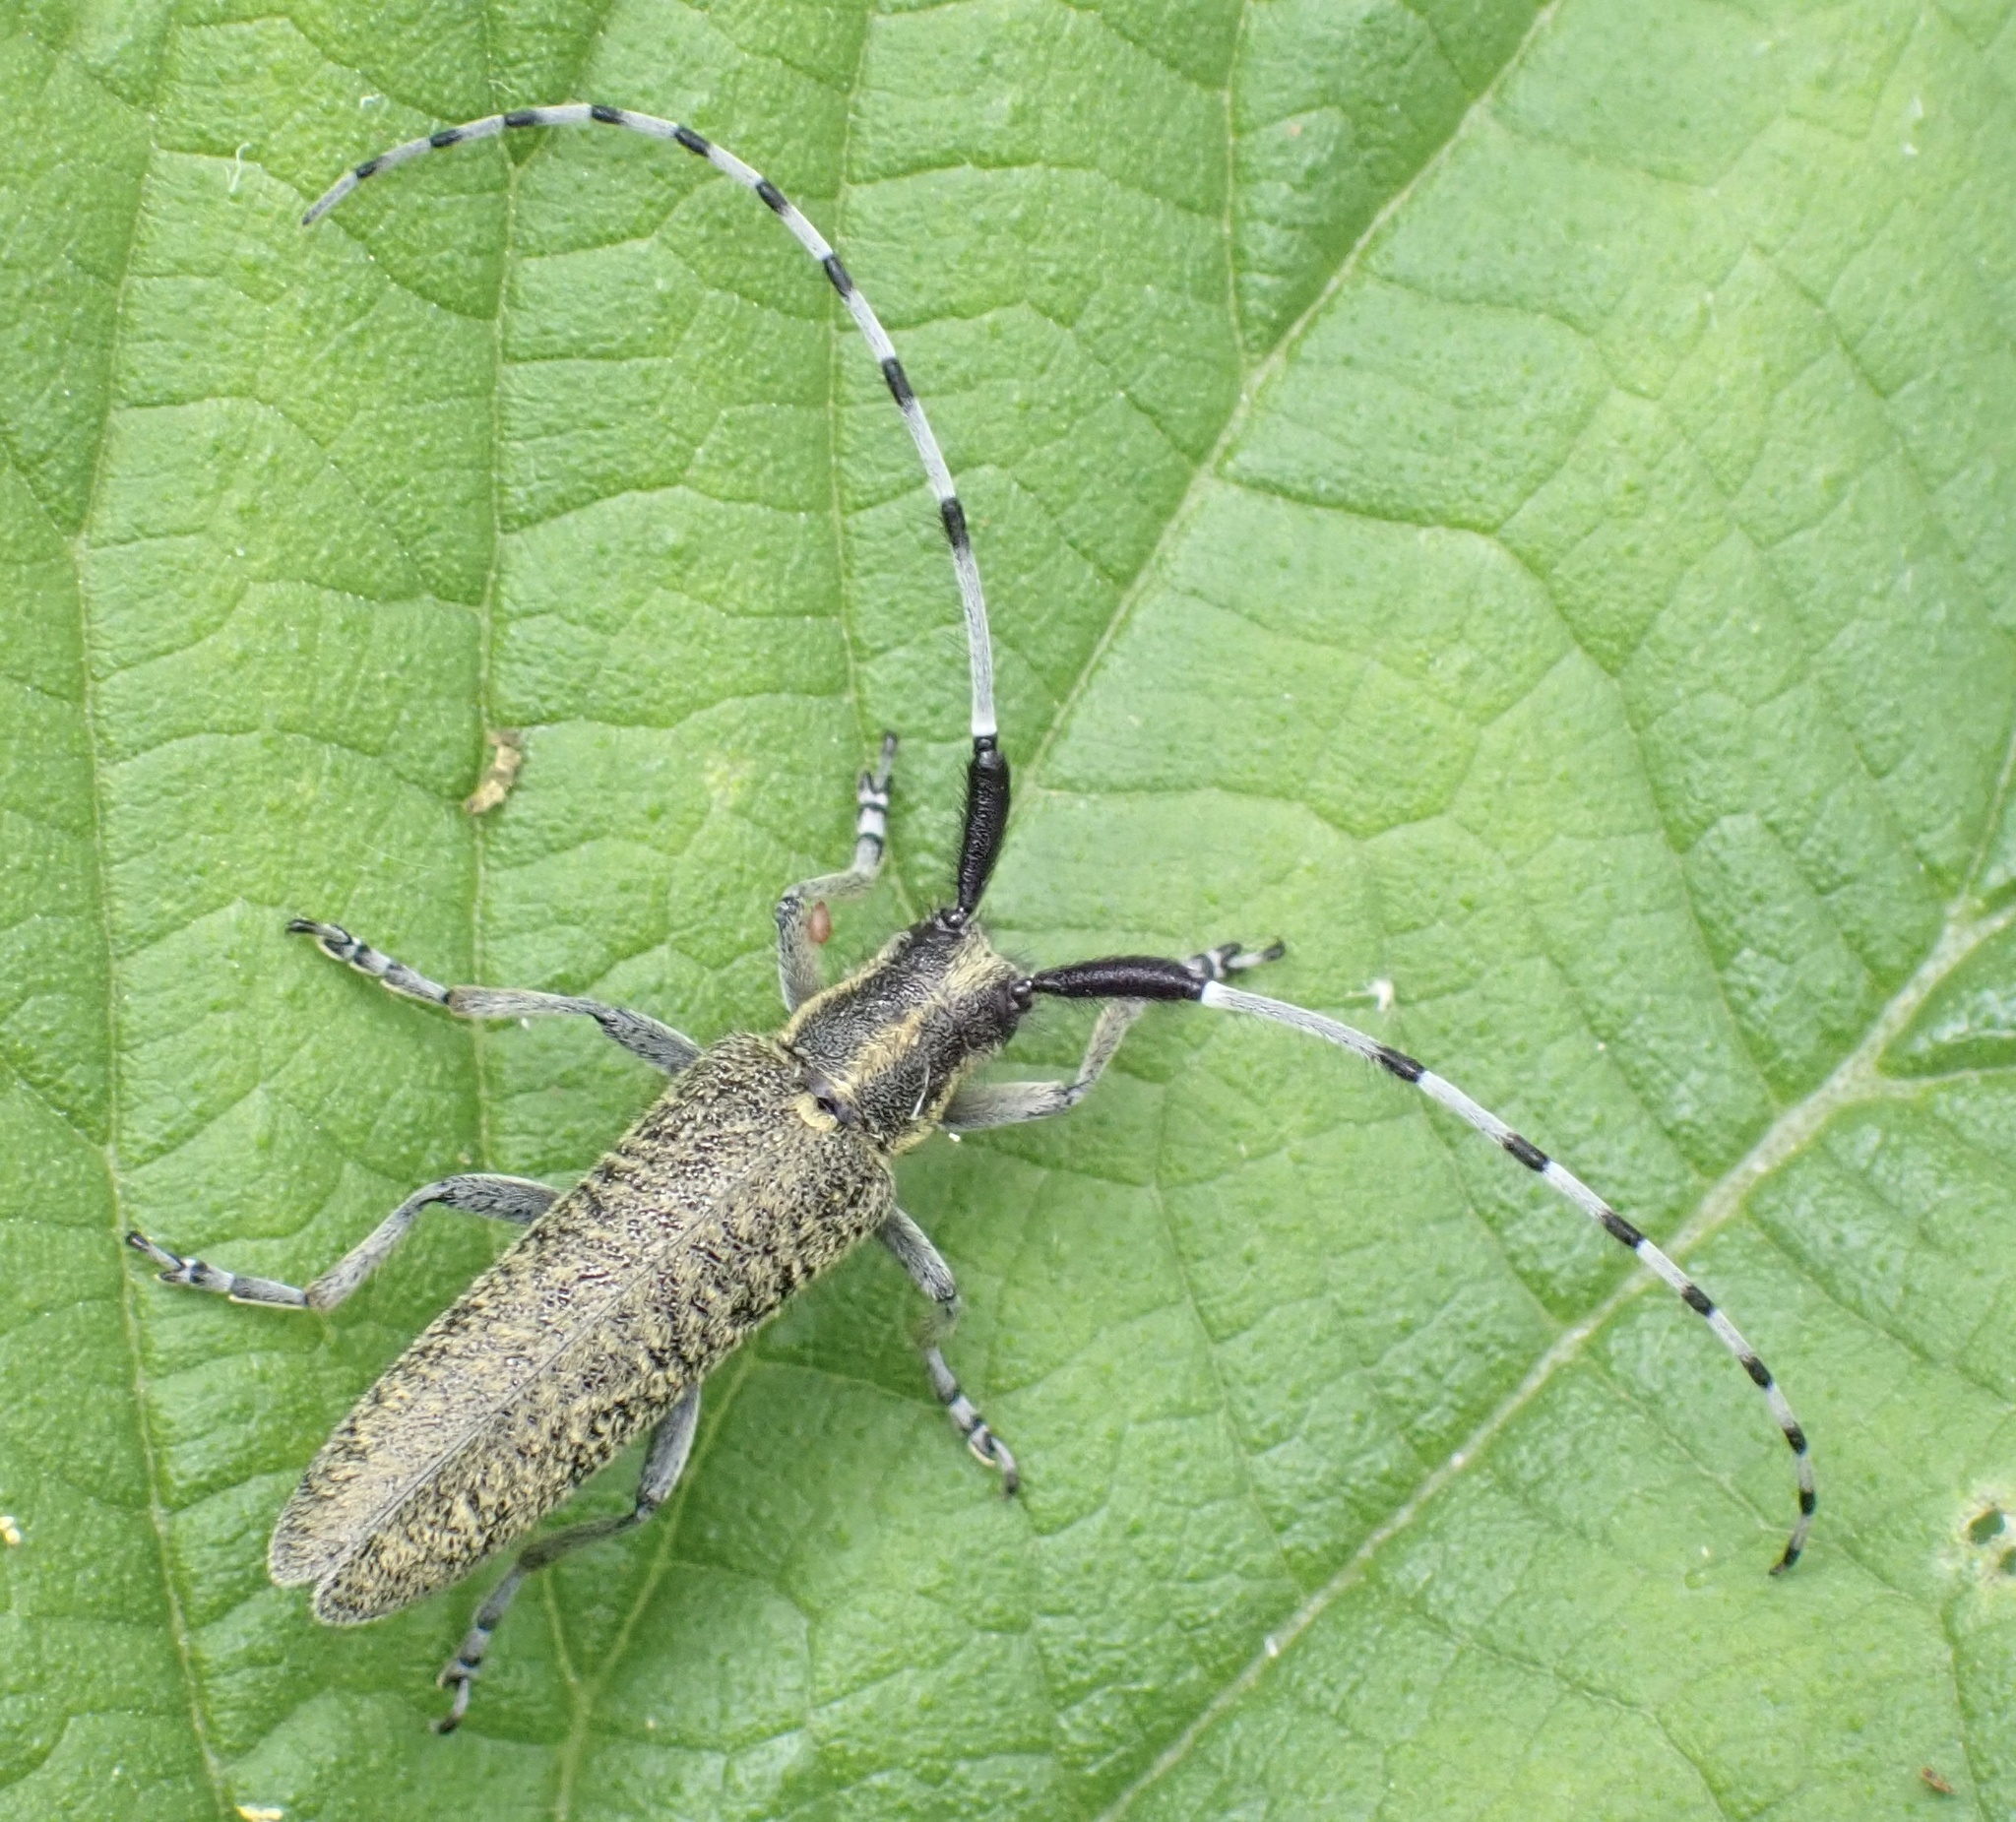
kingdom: Animalia
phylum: Arthropoda
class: Insecta
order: Coleoptera
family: Cerambycidae
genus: Agapanthia
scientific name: Agapanthia villosoviridescens
